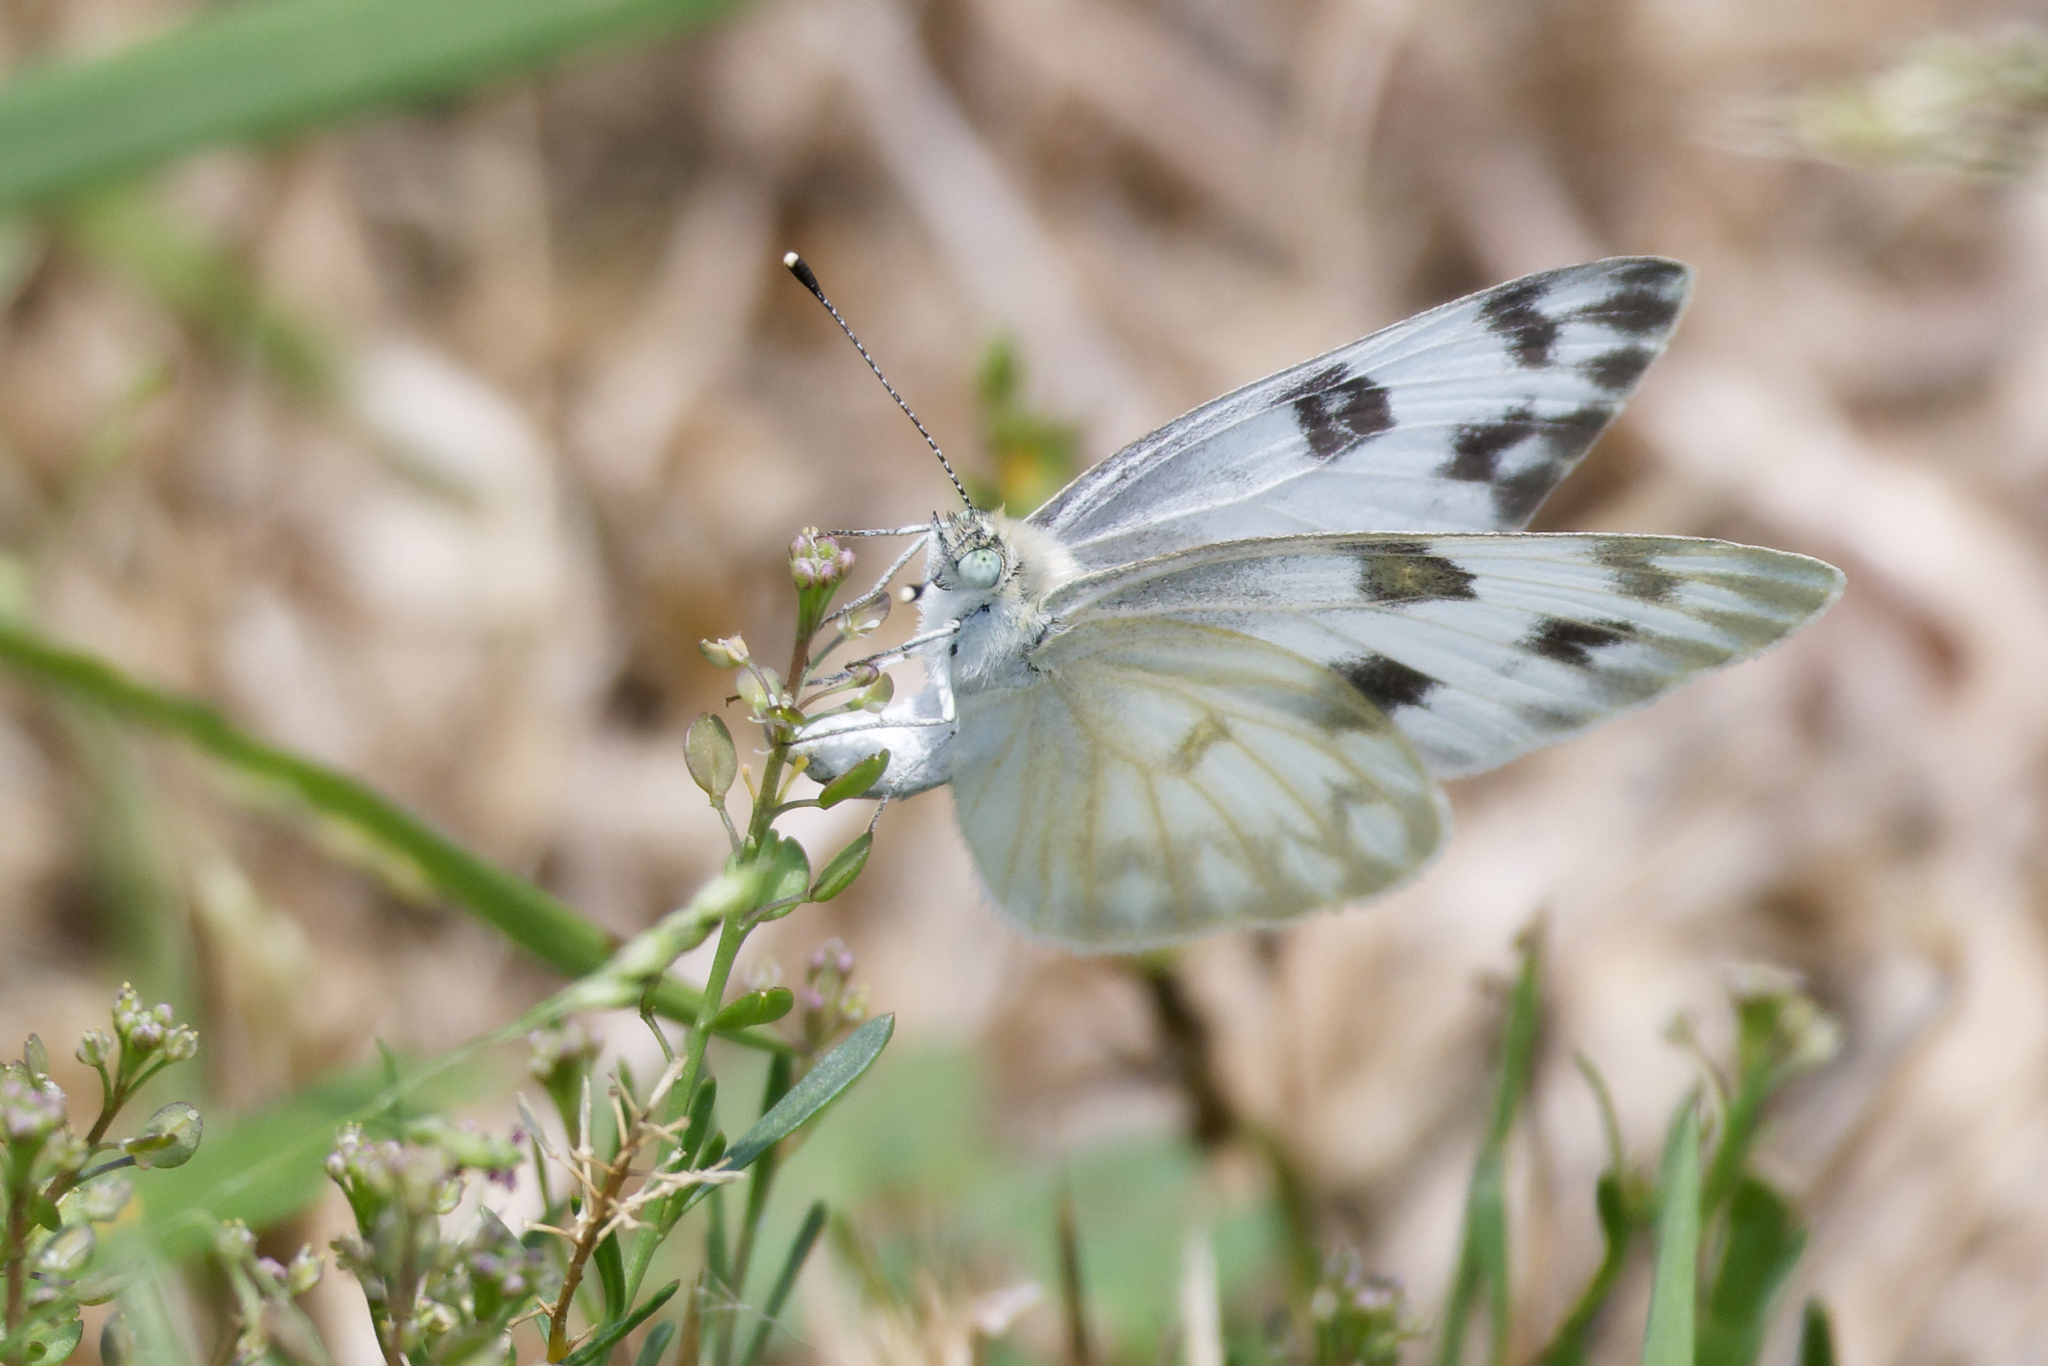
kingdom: Animalia
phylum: Arthropoda
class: Insecta
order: Lepidoptera
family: Pieridae
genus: Pontia
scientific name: Pontia protodice
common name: Checkered white
